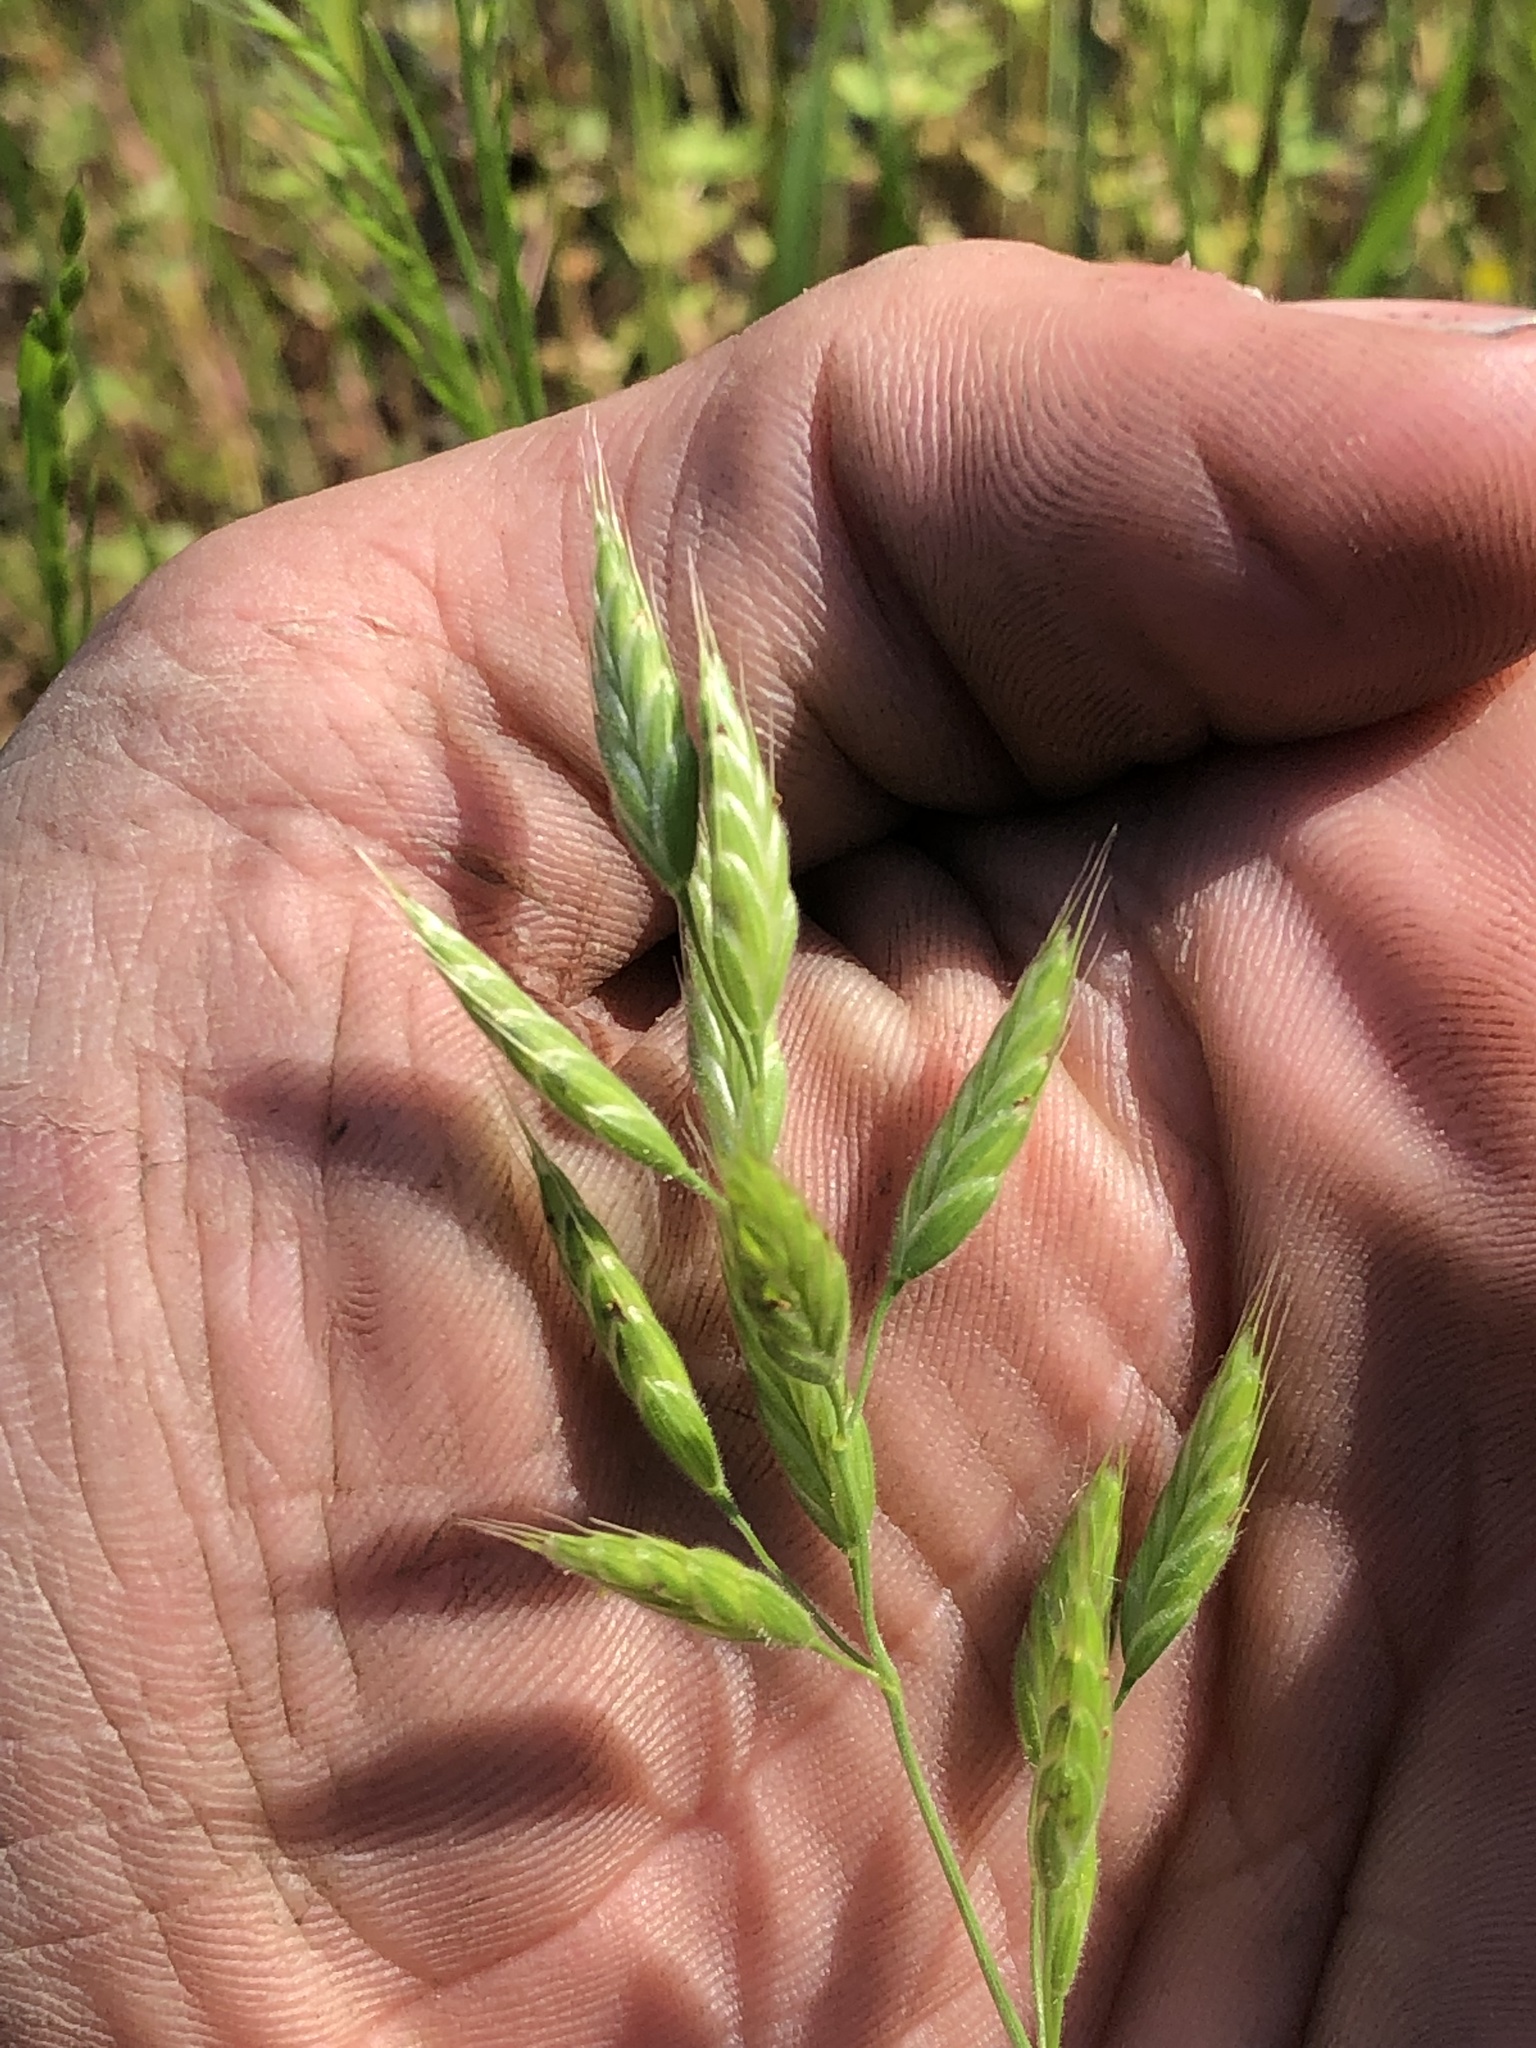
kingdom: Plantae
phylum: Tracheophyta
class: Liliopsida
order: Poales
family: Poaceae
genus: Bromus
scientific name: Bromus hordeaceus
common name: Soft brome
